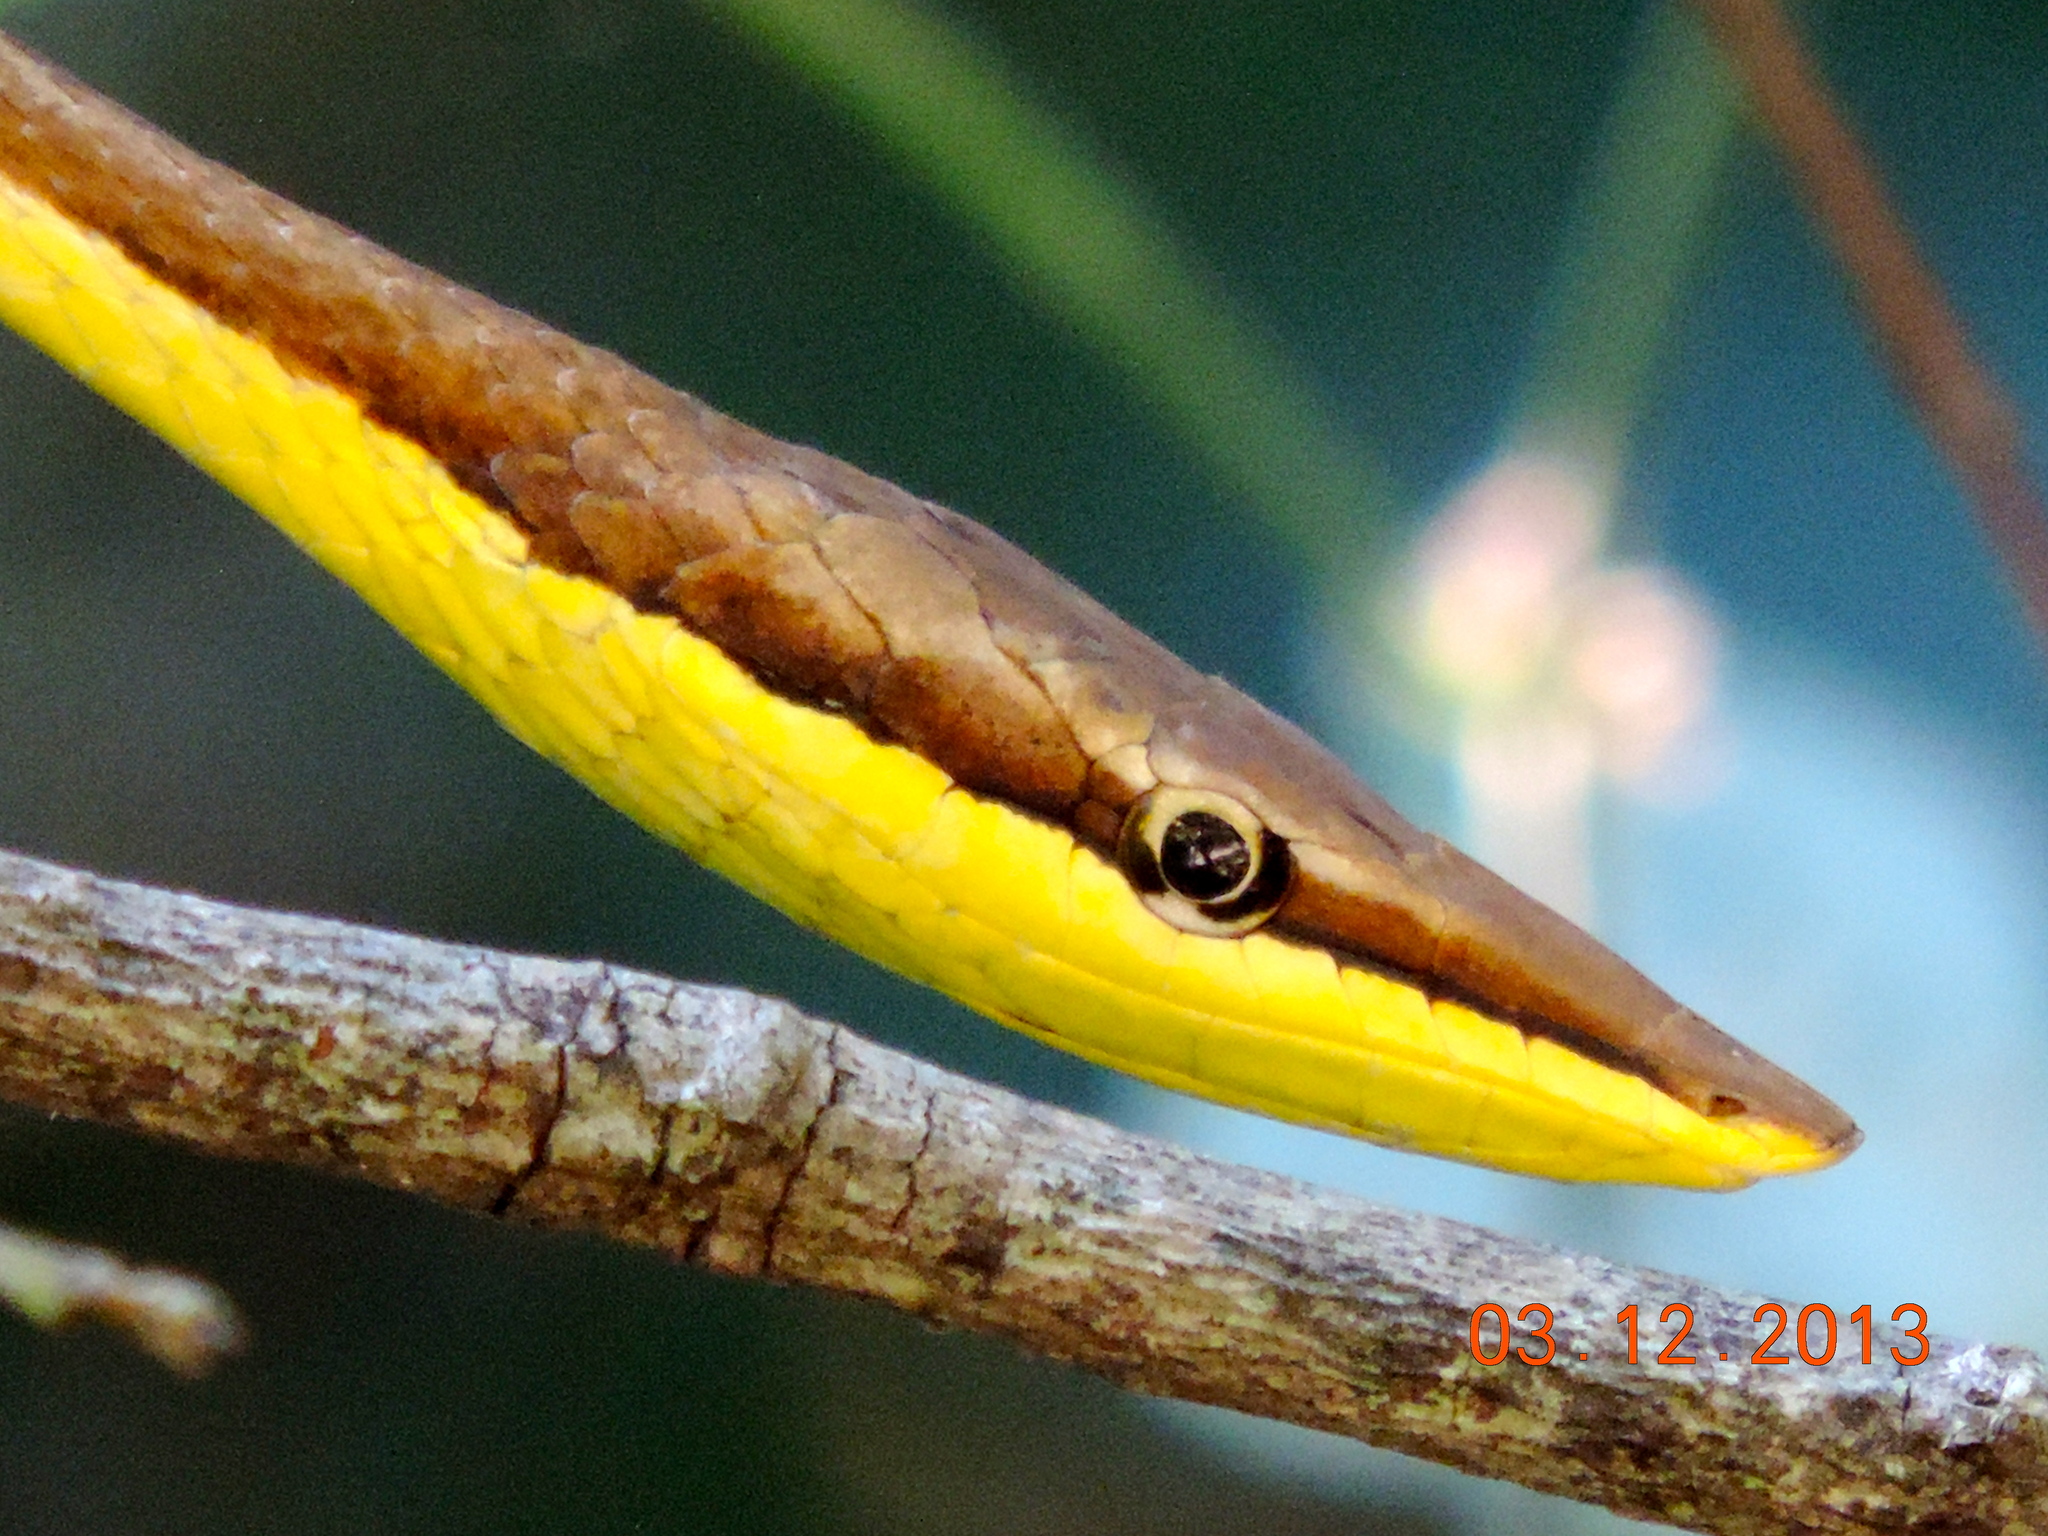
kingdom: Animalia
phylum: Chordata
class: Squamata
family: Colubridae
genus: Oxybelis
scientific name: Oxybelis microphthalmus
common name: Thrornscrub vine snake
